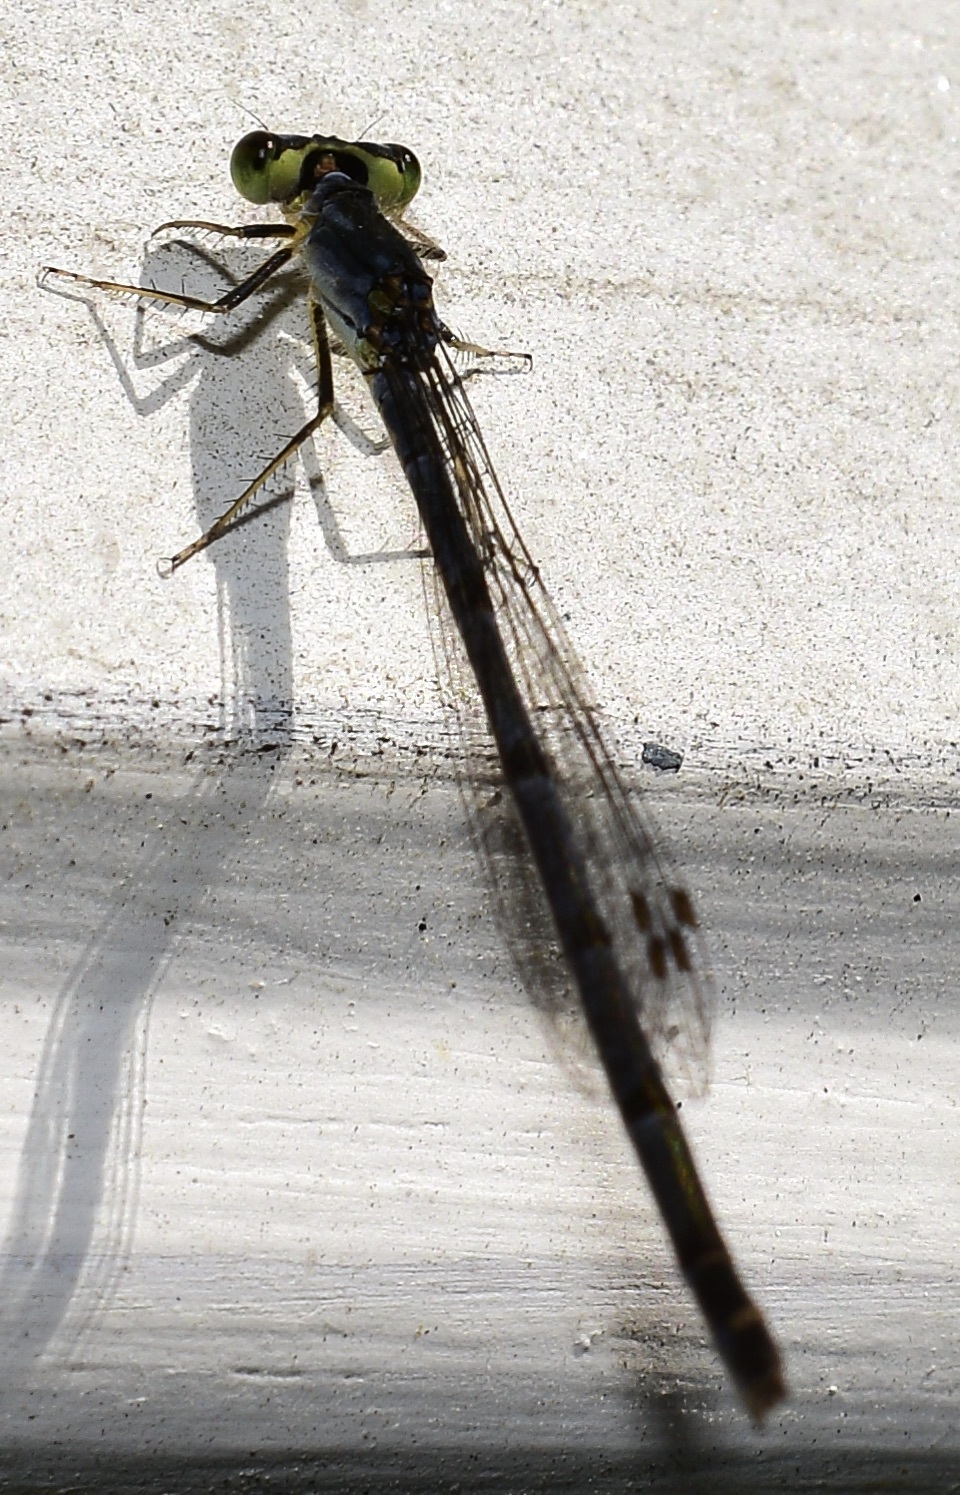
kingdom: Animalia
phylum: Arthropoda
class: Insecta
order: Odonata
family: Coenagrionidae
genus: Ischnura
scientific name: Ischnura posita
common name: Fragile forktail
